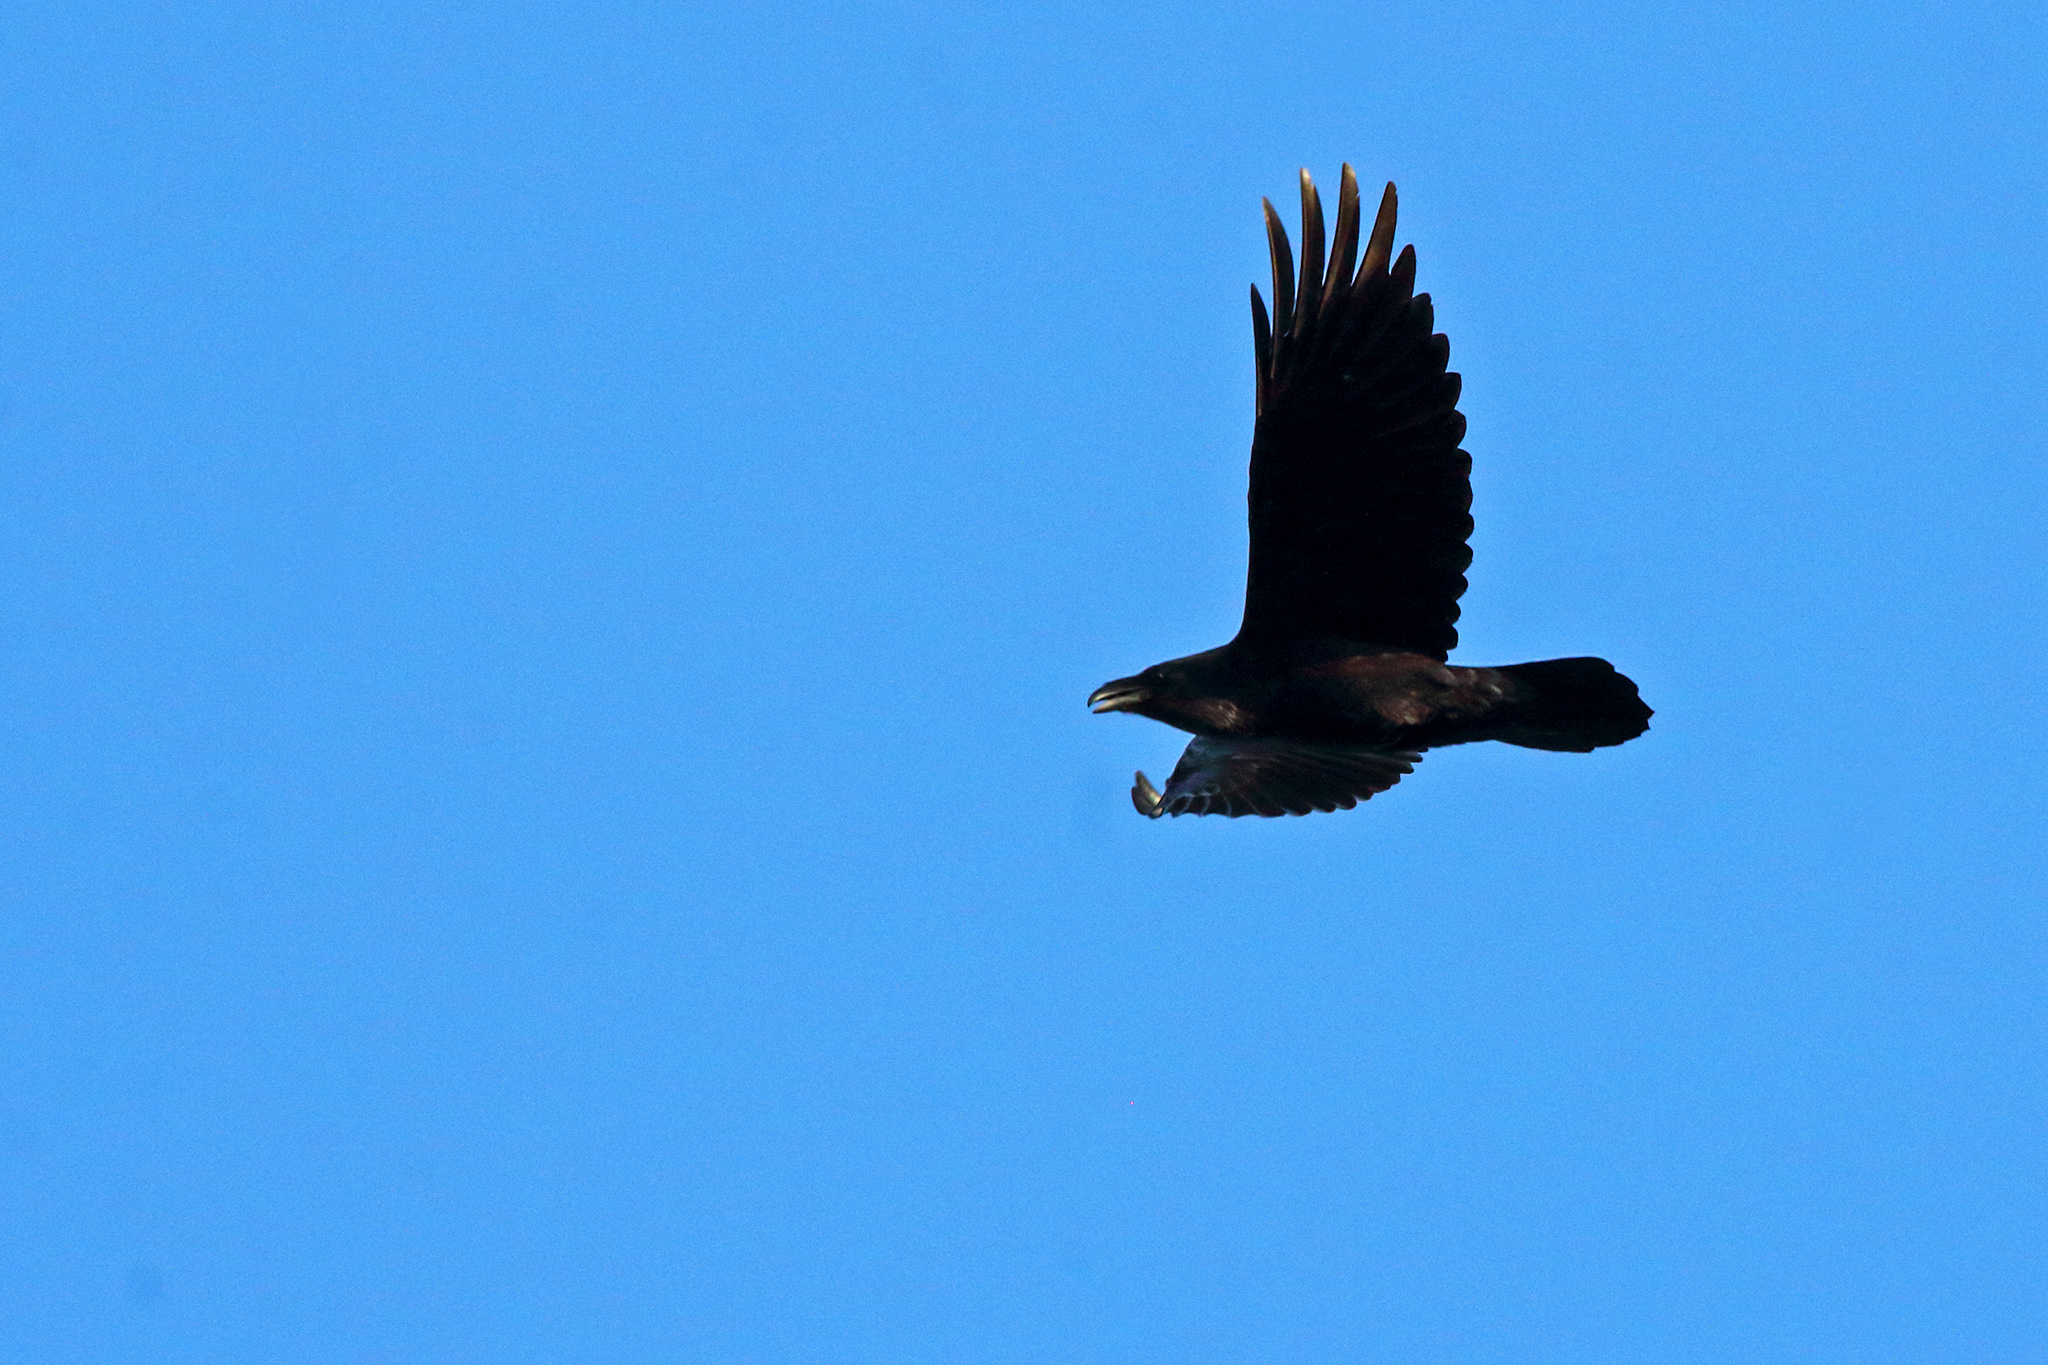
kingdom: Animalia
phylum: Chordata
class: Aves
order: Passeriformes
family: Corvidae
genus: Corvus
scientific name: Corvus corax
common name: Common raven
